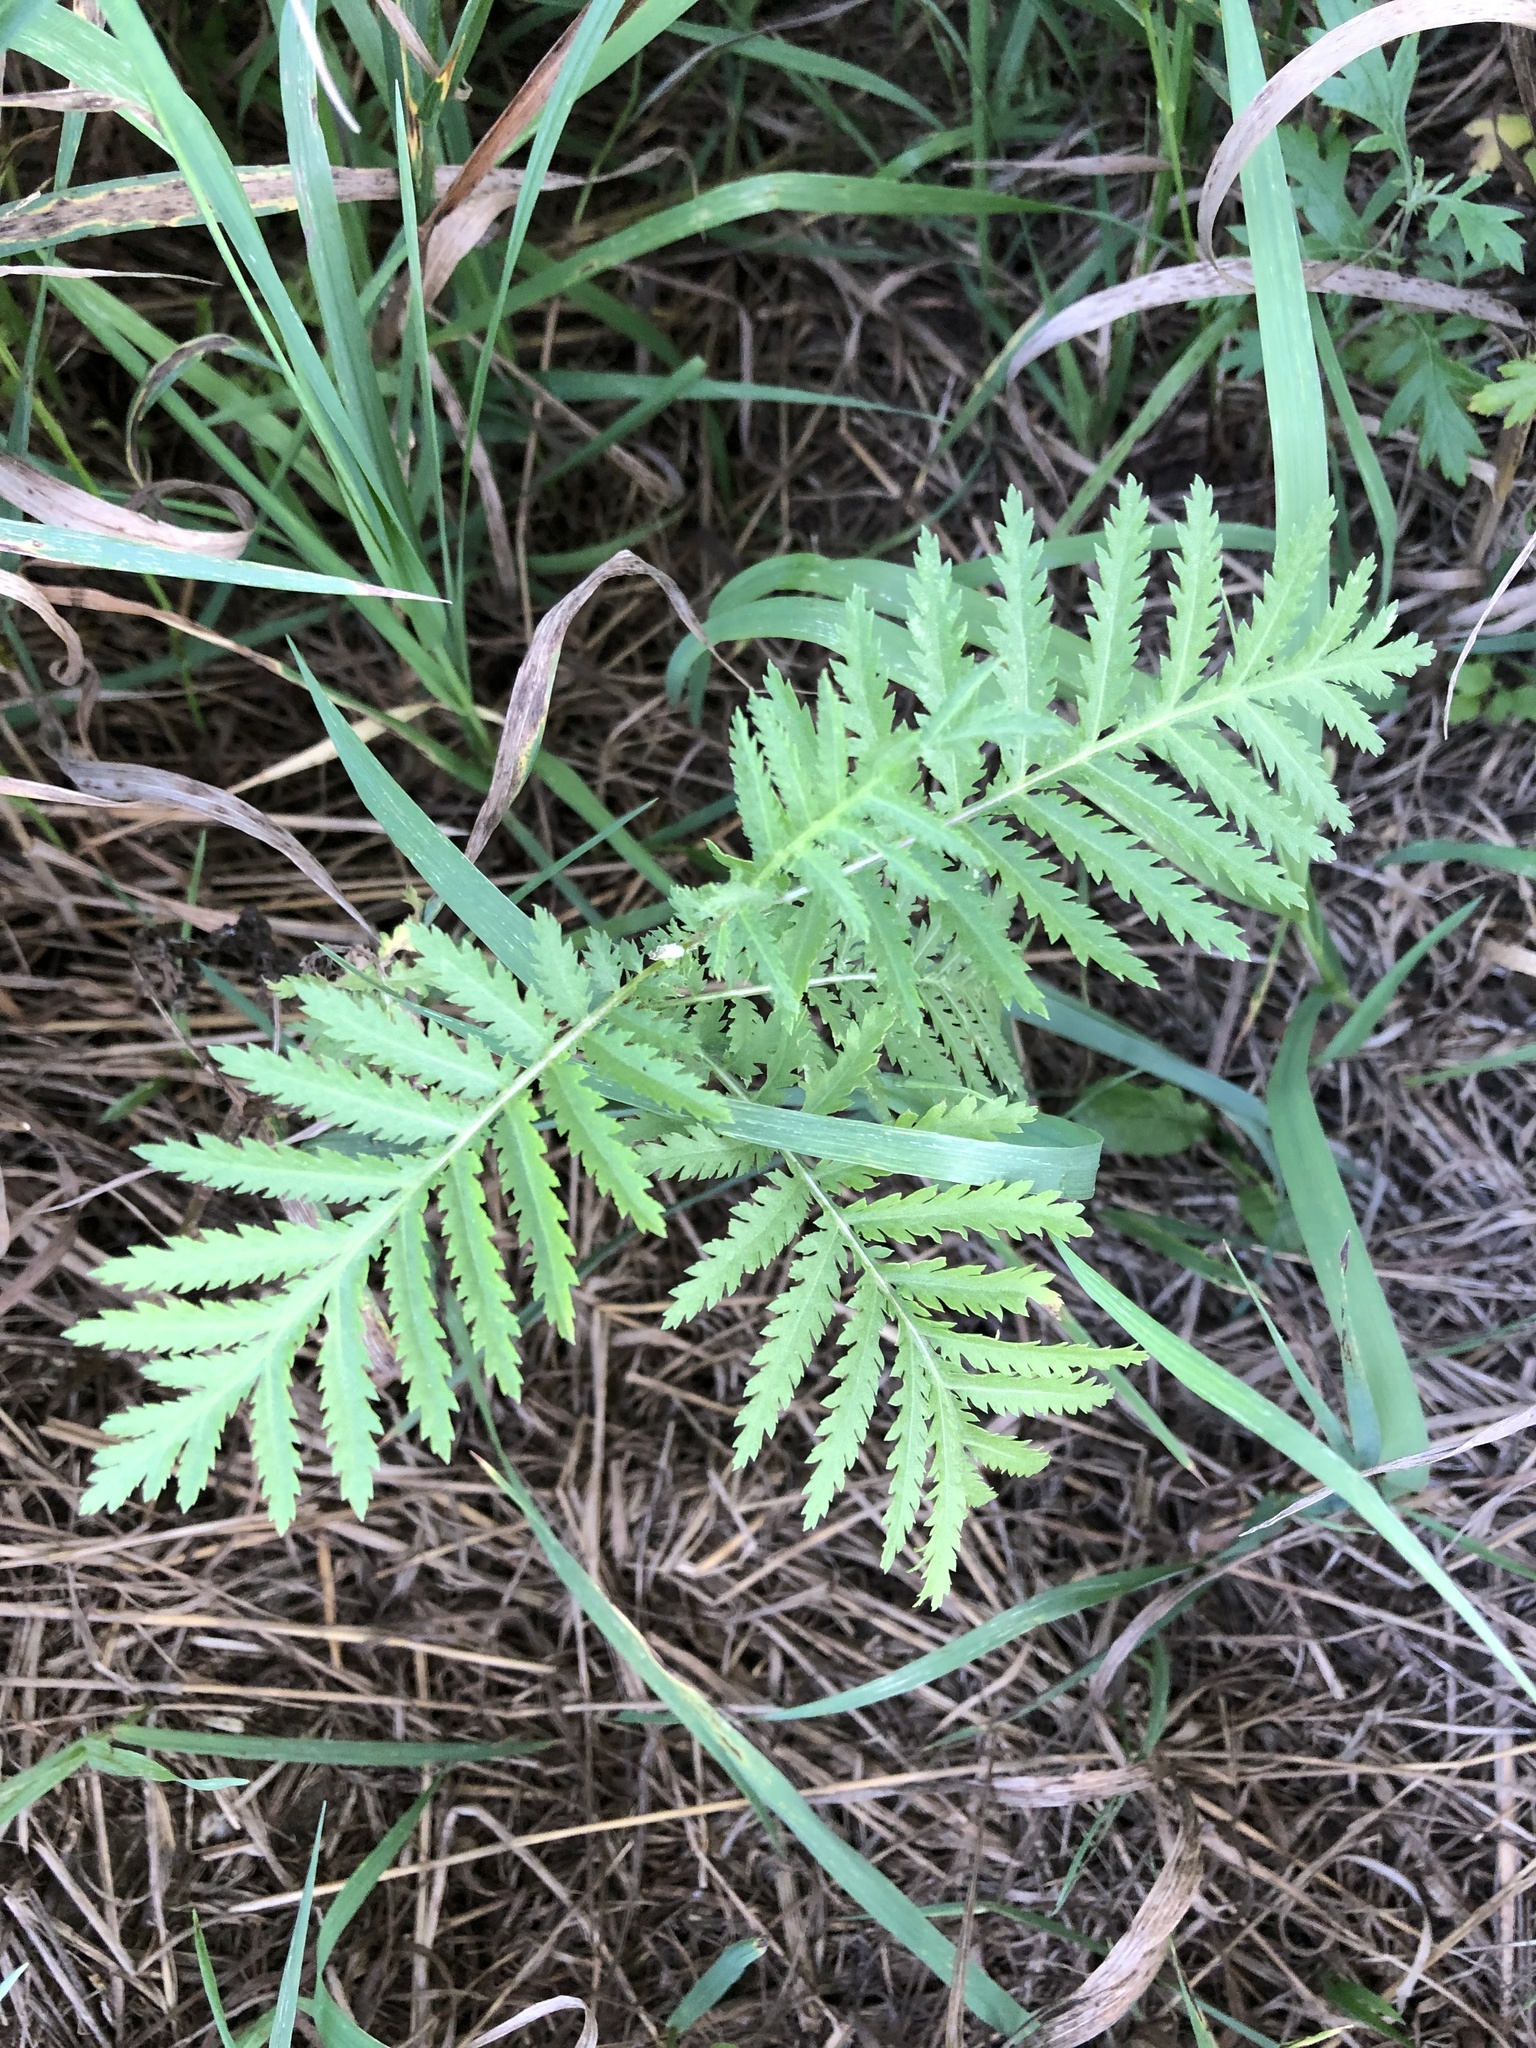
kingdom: Plantae
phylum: Tracheophyta
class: Magnoliopsida
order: Asterales
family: Asteraceae
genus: Tanacetum
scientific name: Tanacetum vulgare
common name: Common tansy
